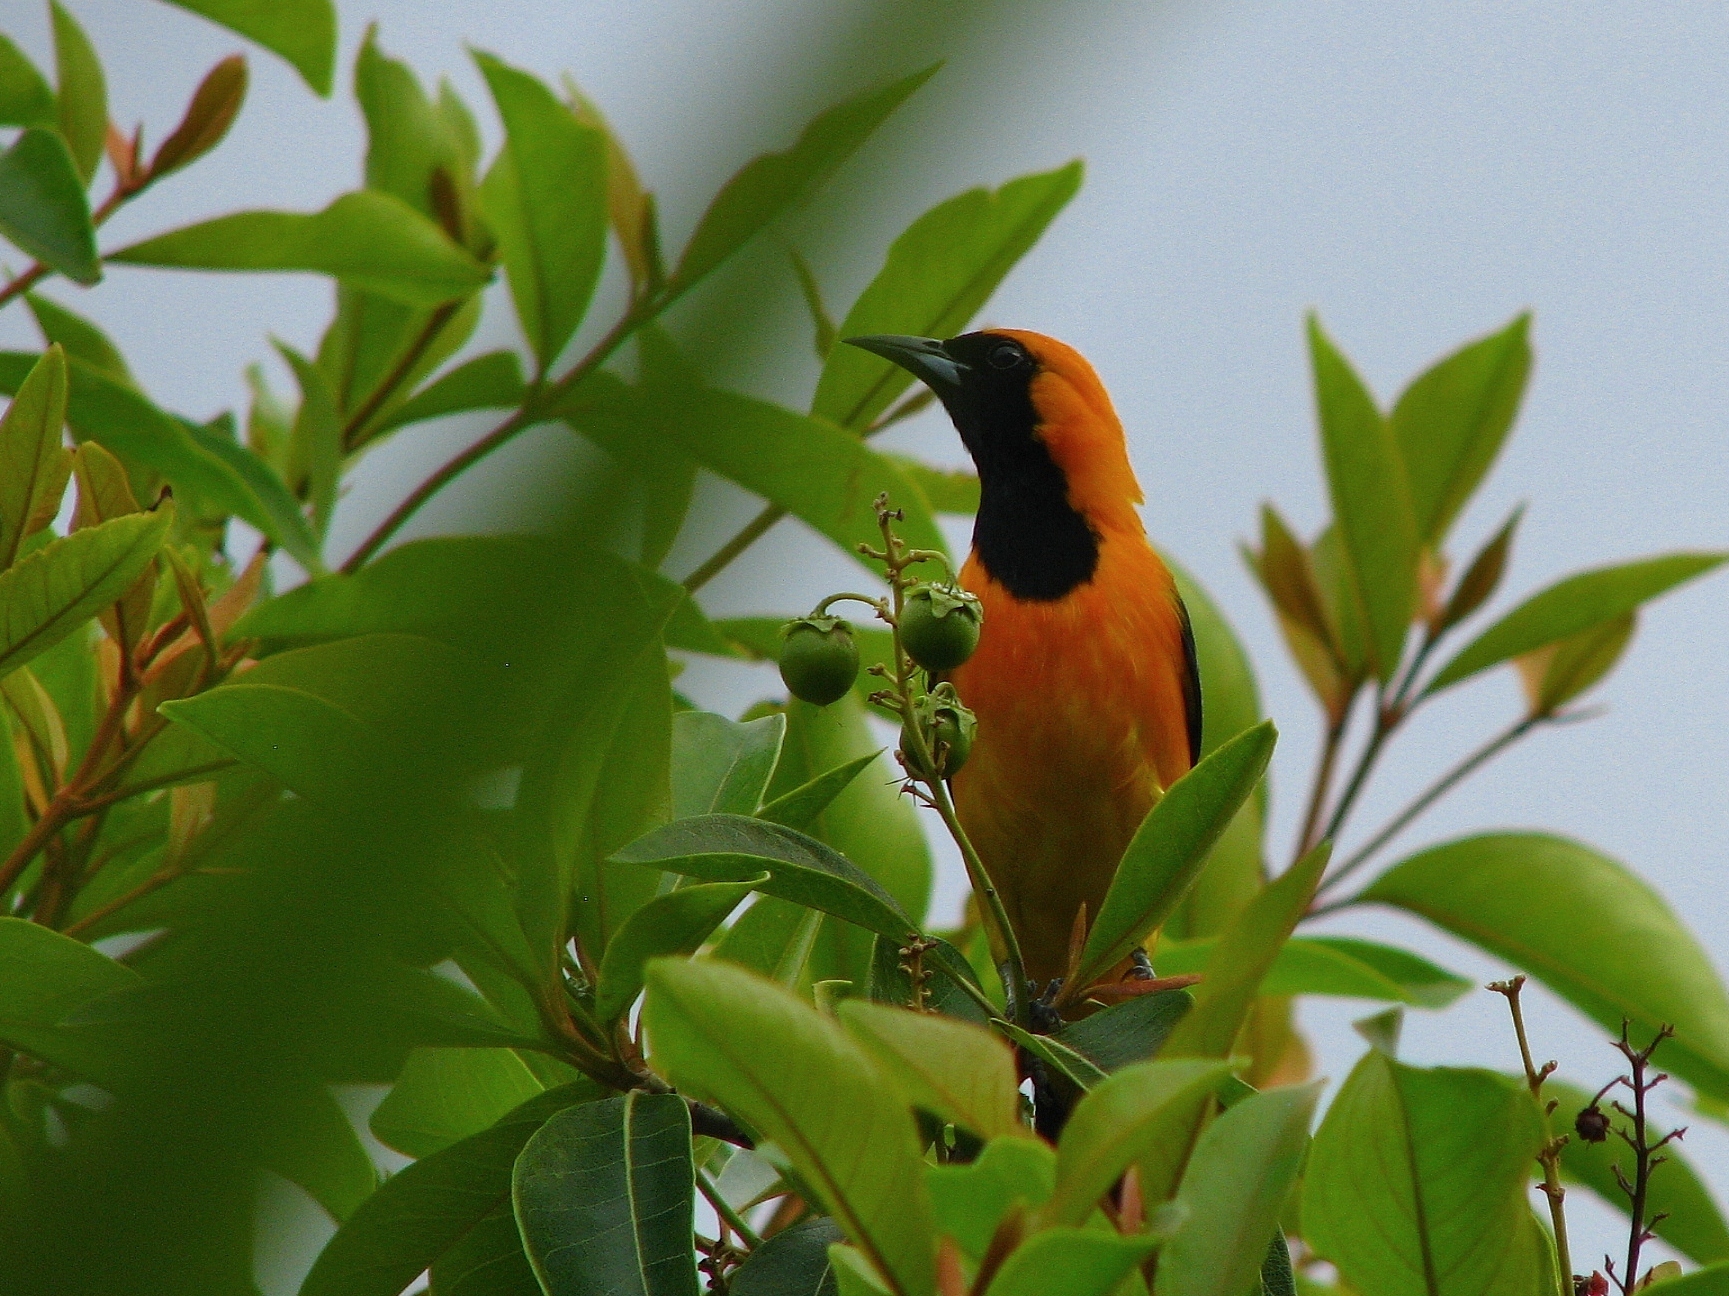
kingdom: Animalia
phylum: Chordata
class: Aves
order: Passeriformes
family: Icteridae
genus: Icterus
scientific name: Icterus cucullatus
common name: Hooded oriole
